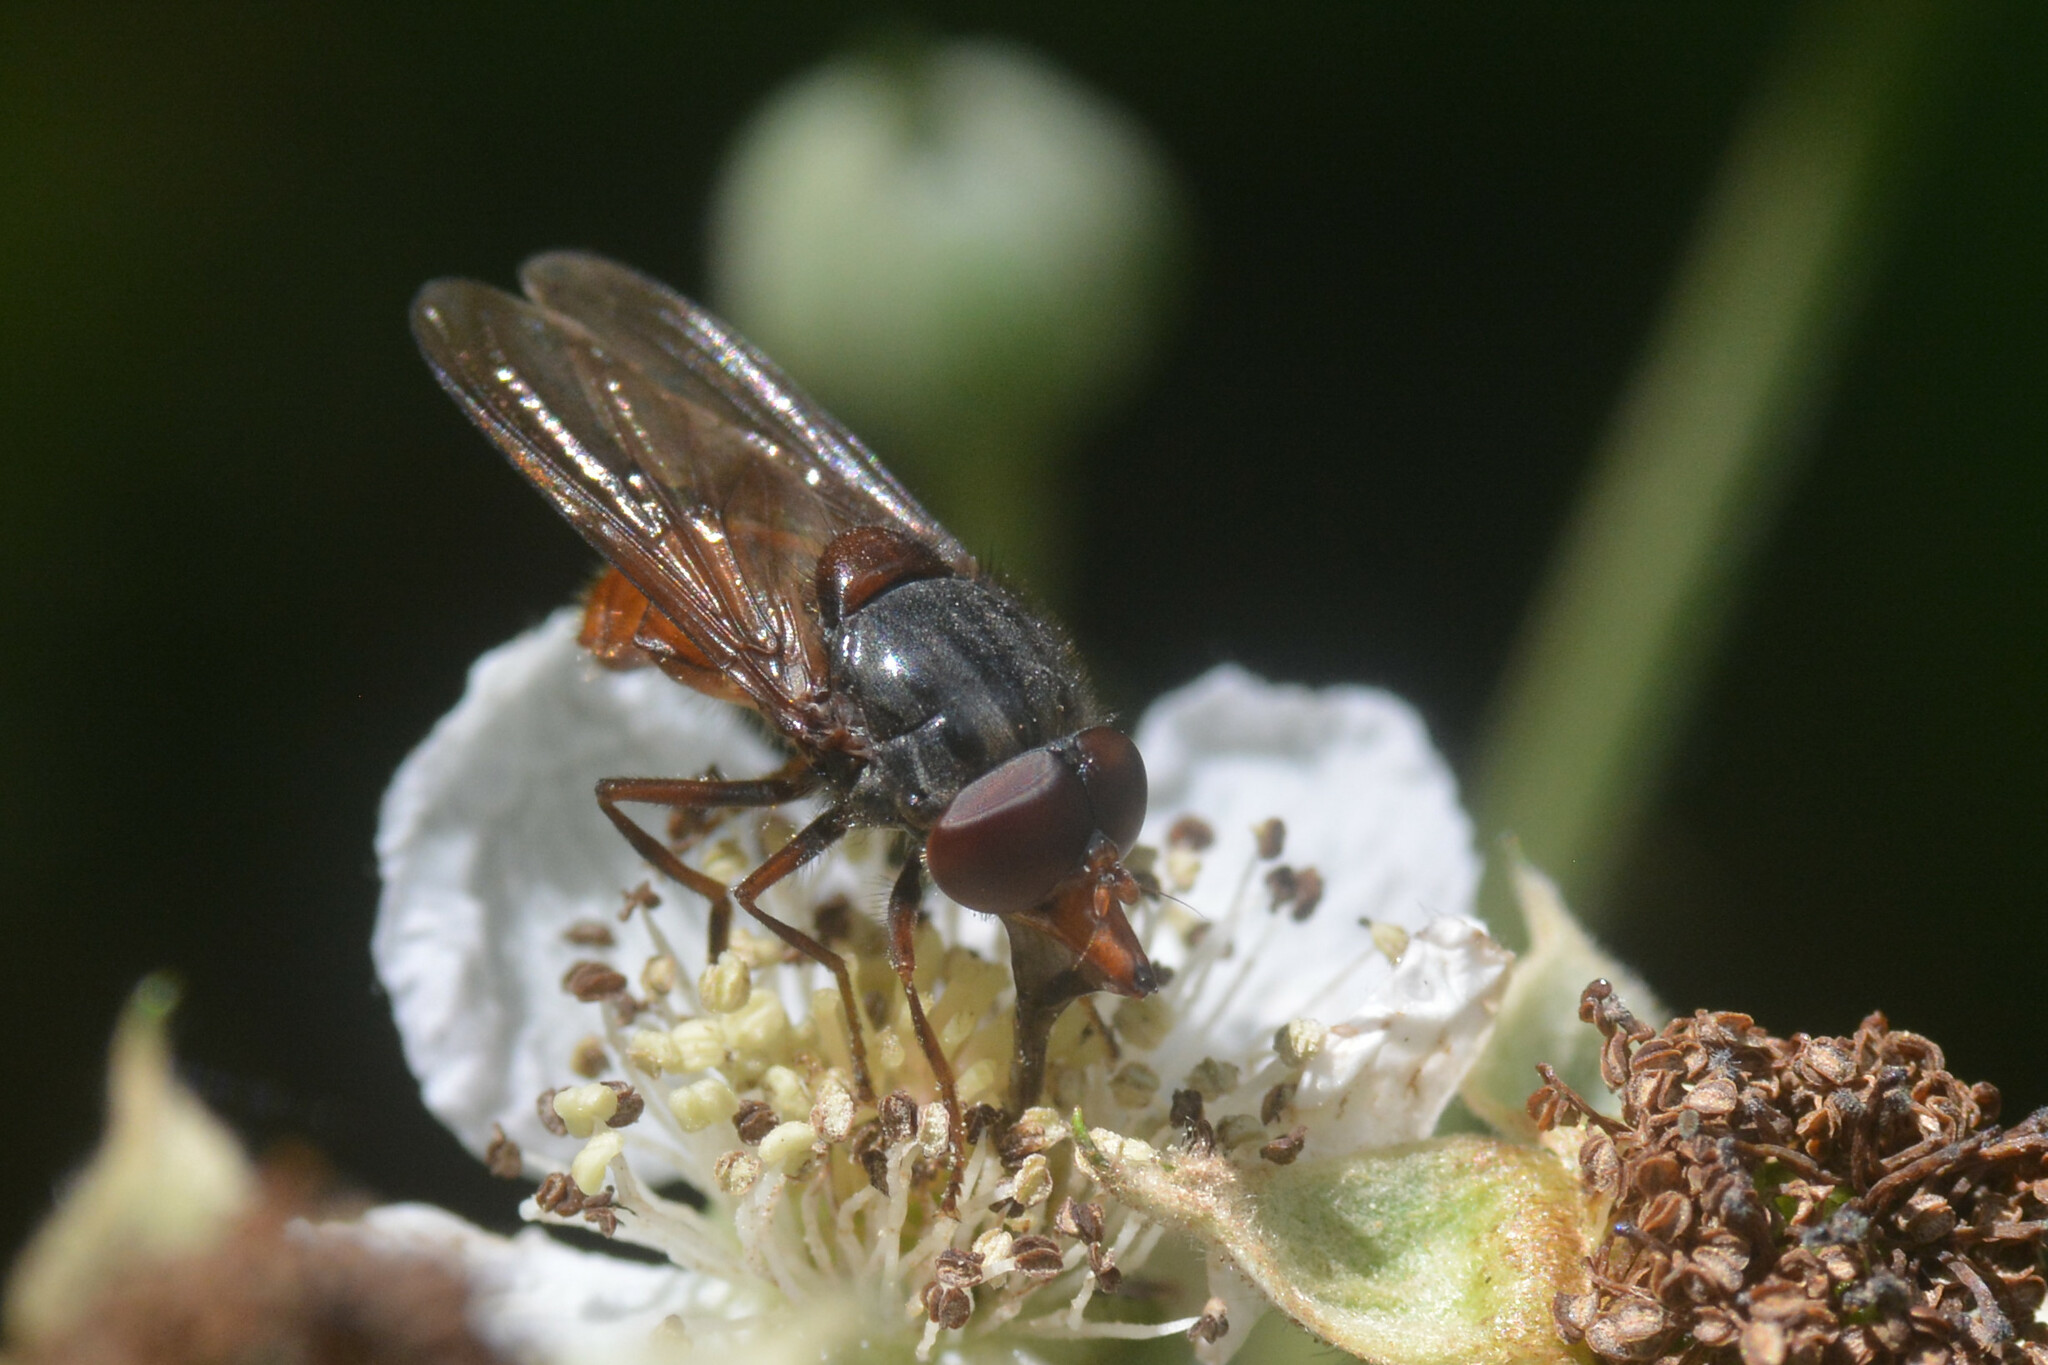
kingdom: Animalia
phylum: Arthropoda
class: Insecta
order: Diptera
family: Syrphidae
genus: Rhingia
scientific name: Rhingia rostrata
